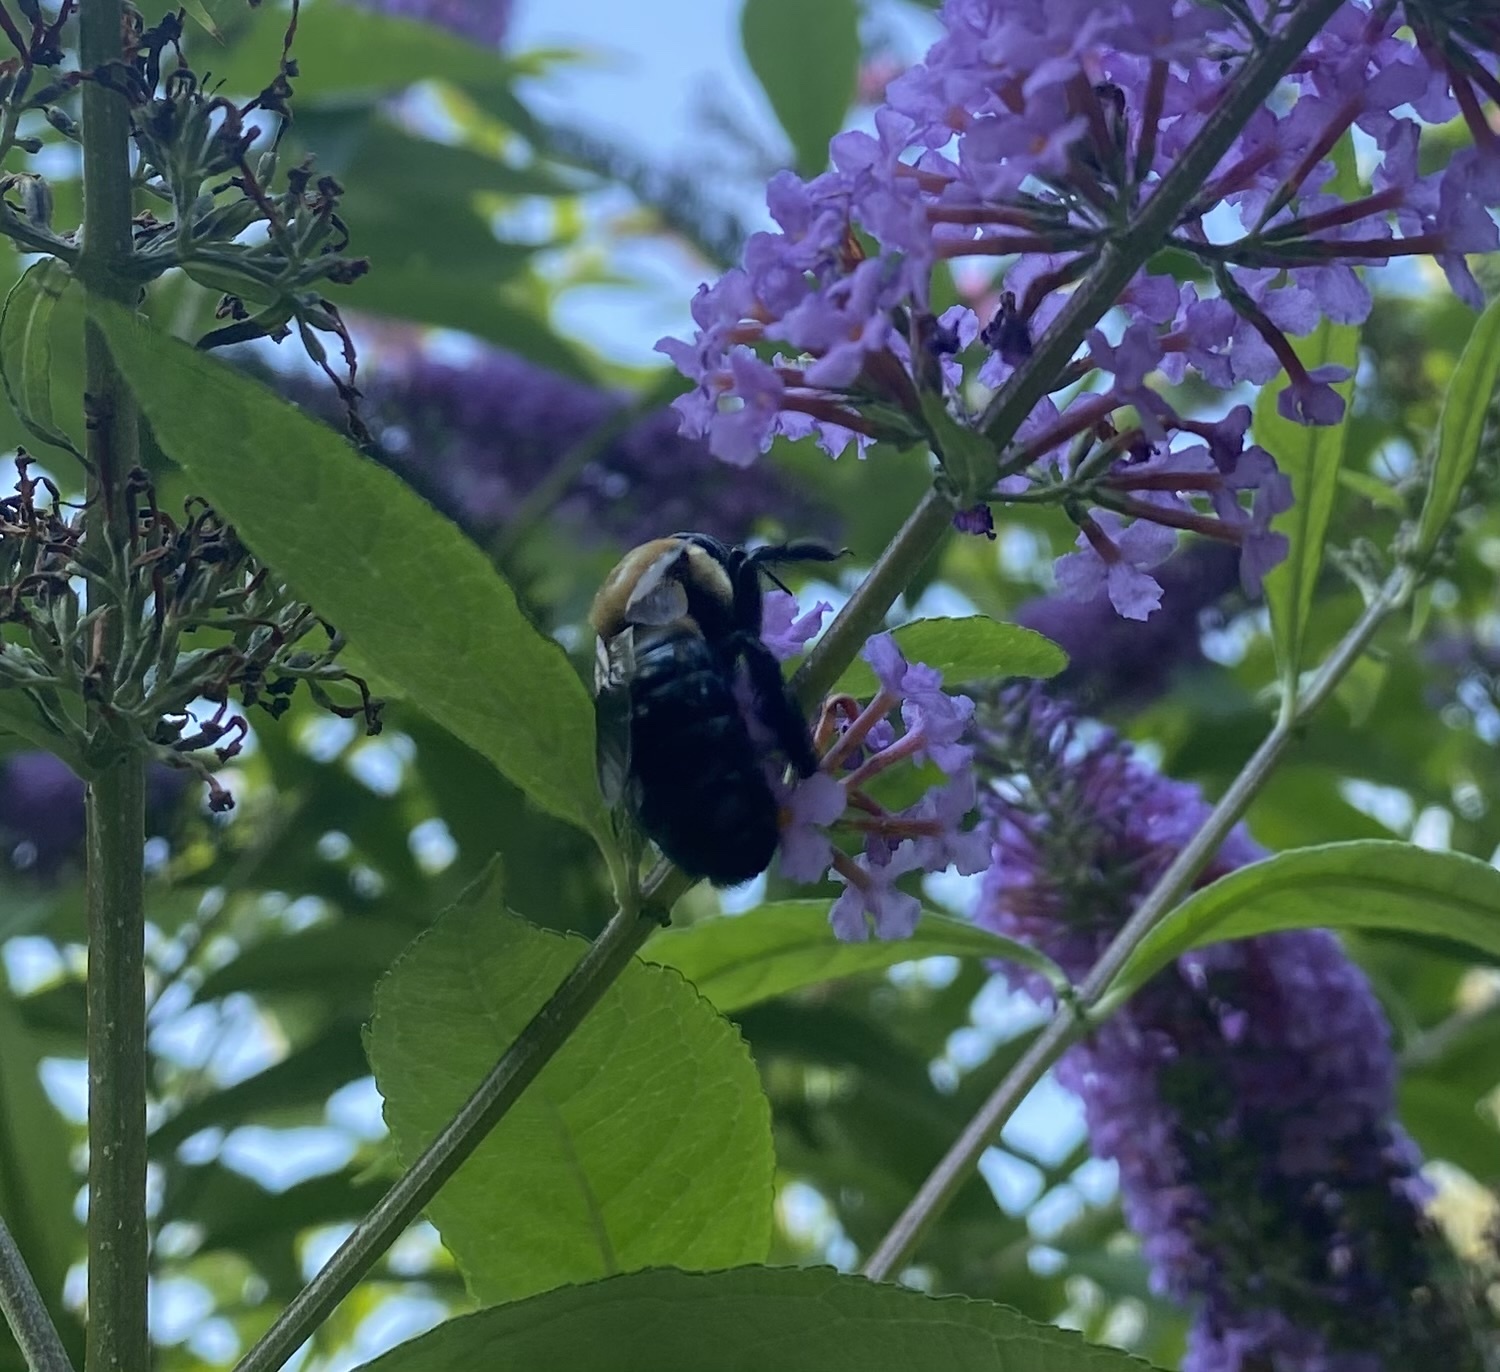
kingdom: Animalia
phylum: Arthropoda
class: Insecta
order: Hymenoptera
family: Apidae
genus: Xylocopa
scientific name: Xylocopa virginica
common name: Carpenter bee
